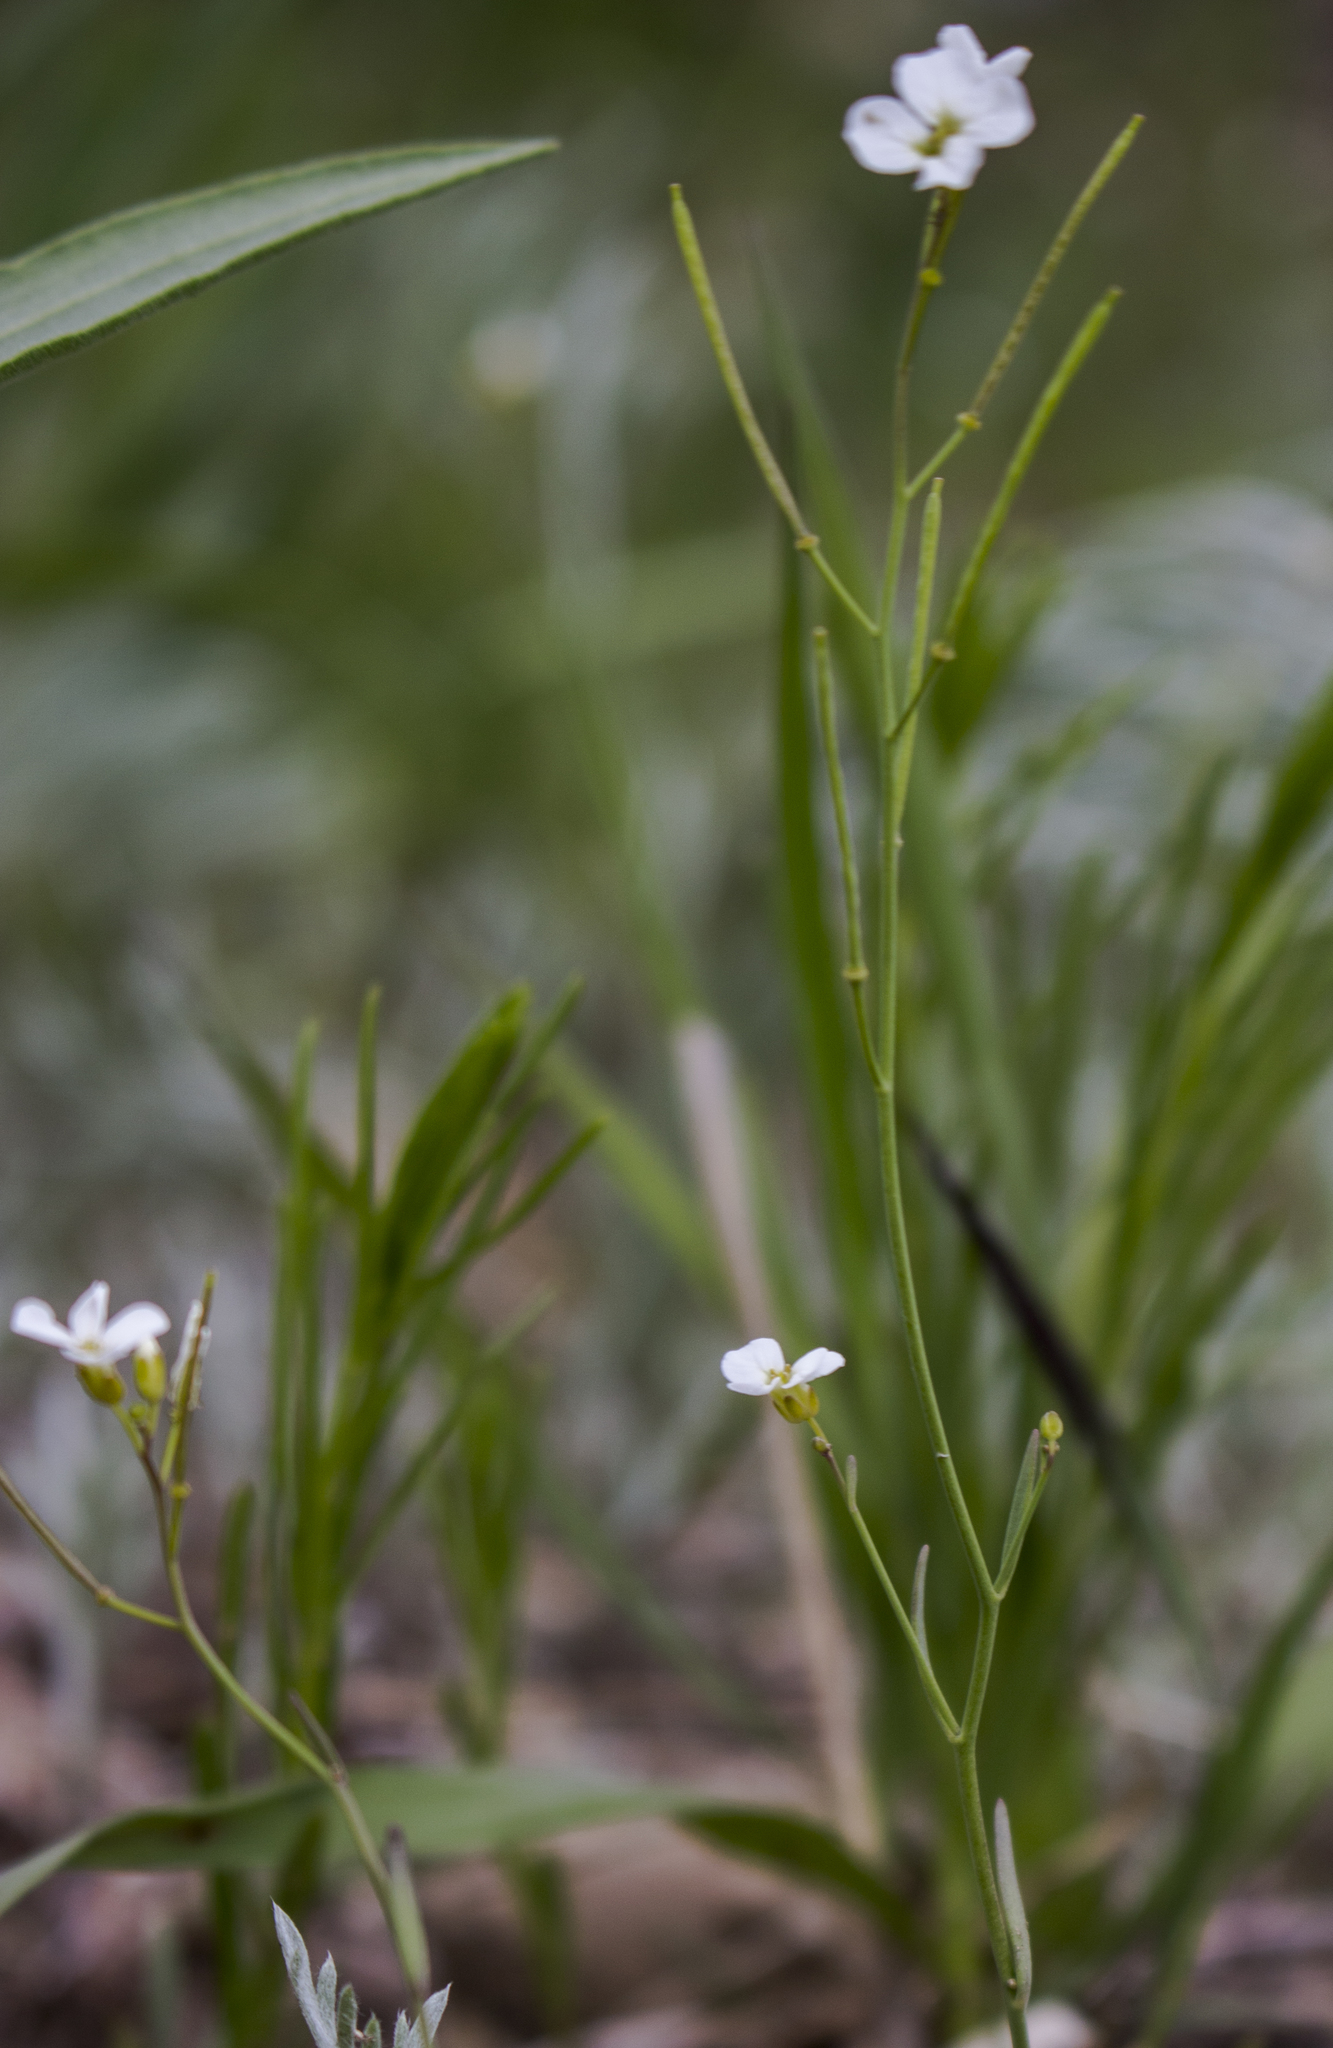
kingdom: Plantae
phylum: Tracheophyta
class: Magnoliopsida
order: Brassicales
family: Brassicaceae
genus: Arabidopsis
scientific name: Arabidopsis lyrata
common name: Lyrate rockcress
